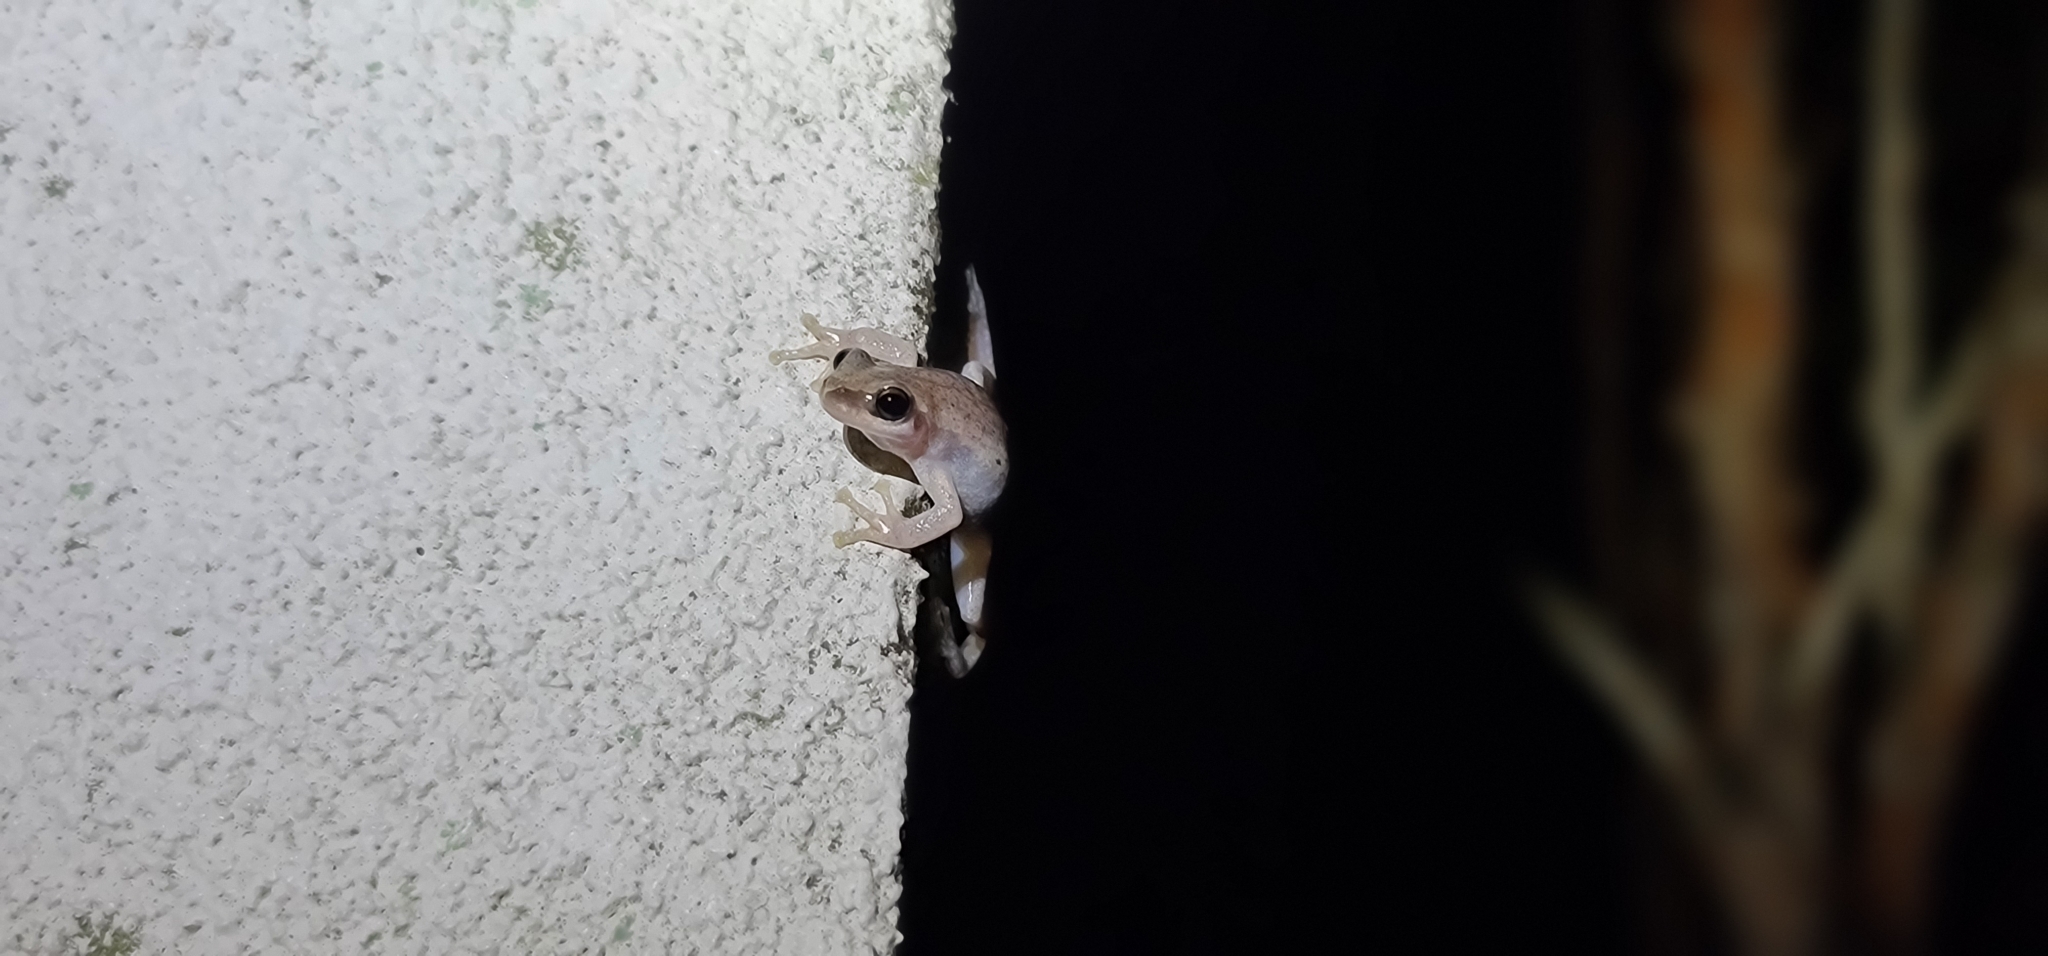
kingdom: Animalia
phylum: Chordata
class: Amphibia
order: Anura
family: Pelodryadidae
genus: Litoria
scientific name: Litoria rubella
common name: Desert tree frog
